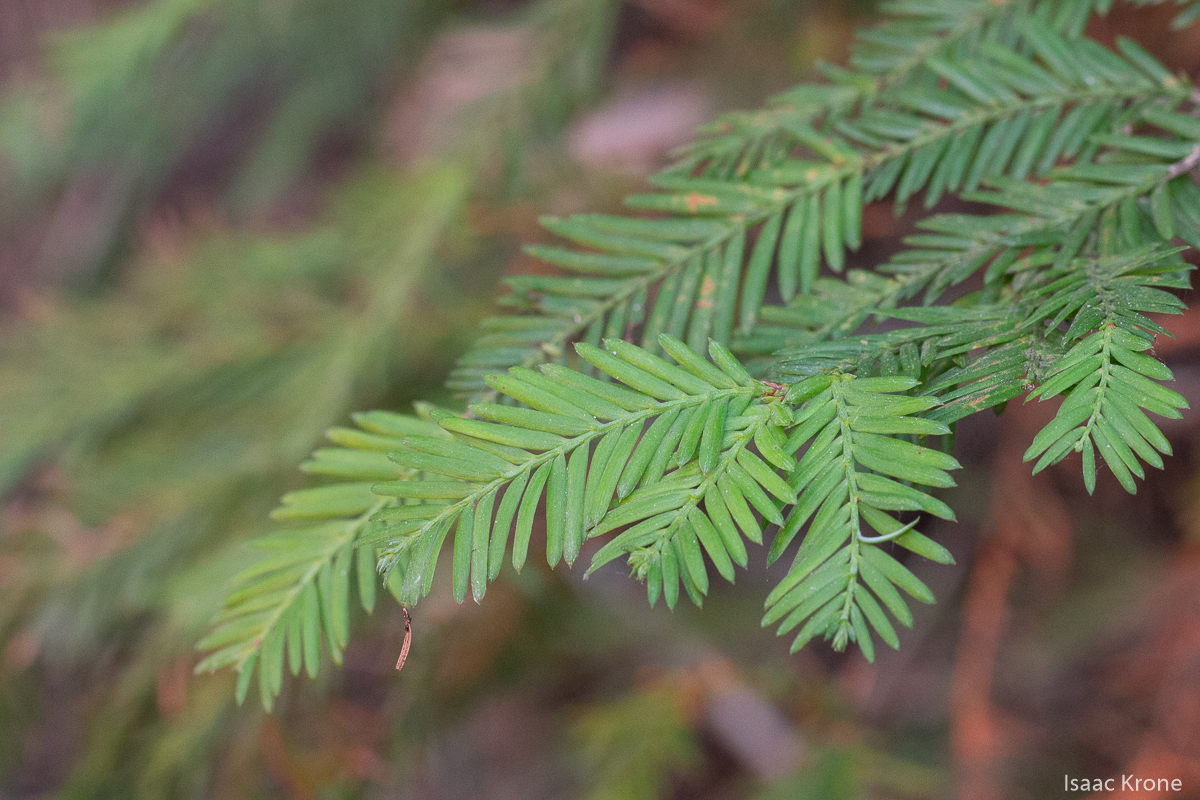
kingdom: Plantae
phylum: Tracheophyta
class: Pinopsida
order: Pinales
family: Cupressaceae
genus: Sequoia
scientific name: Sequoia sempervirens
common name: Coast redwood
